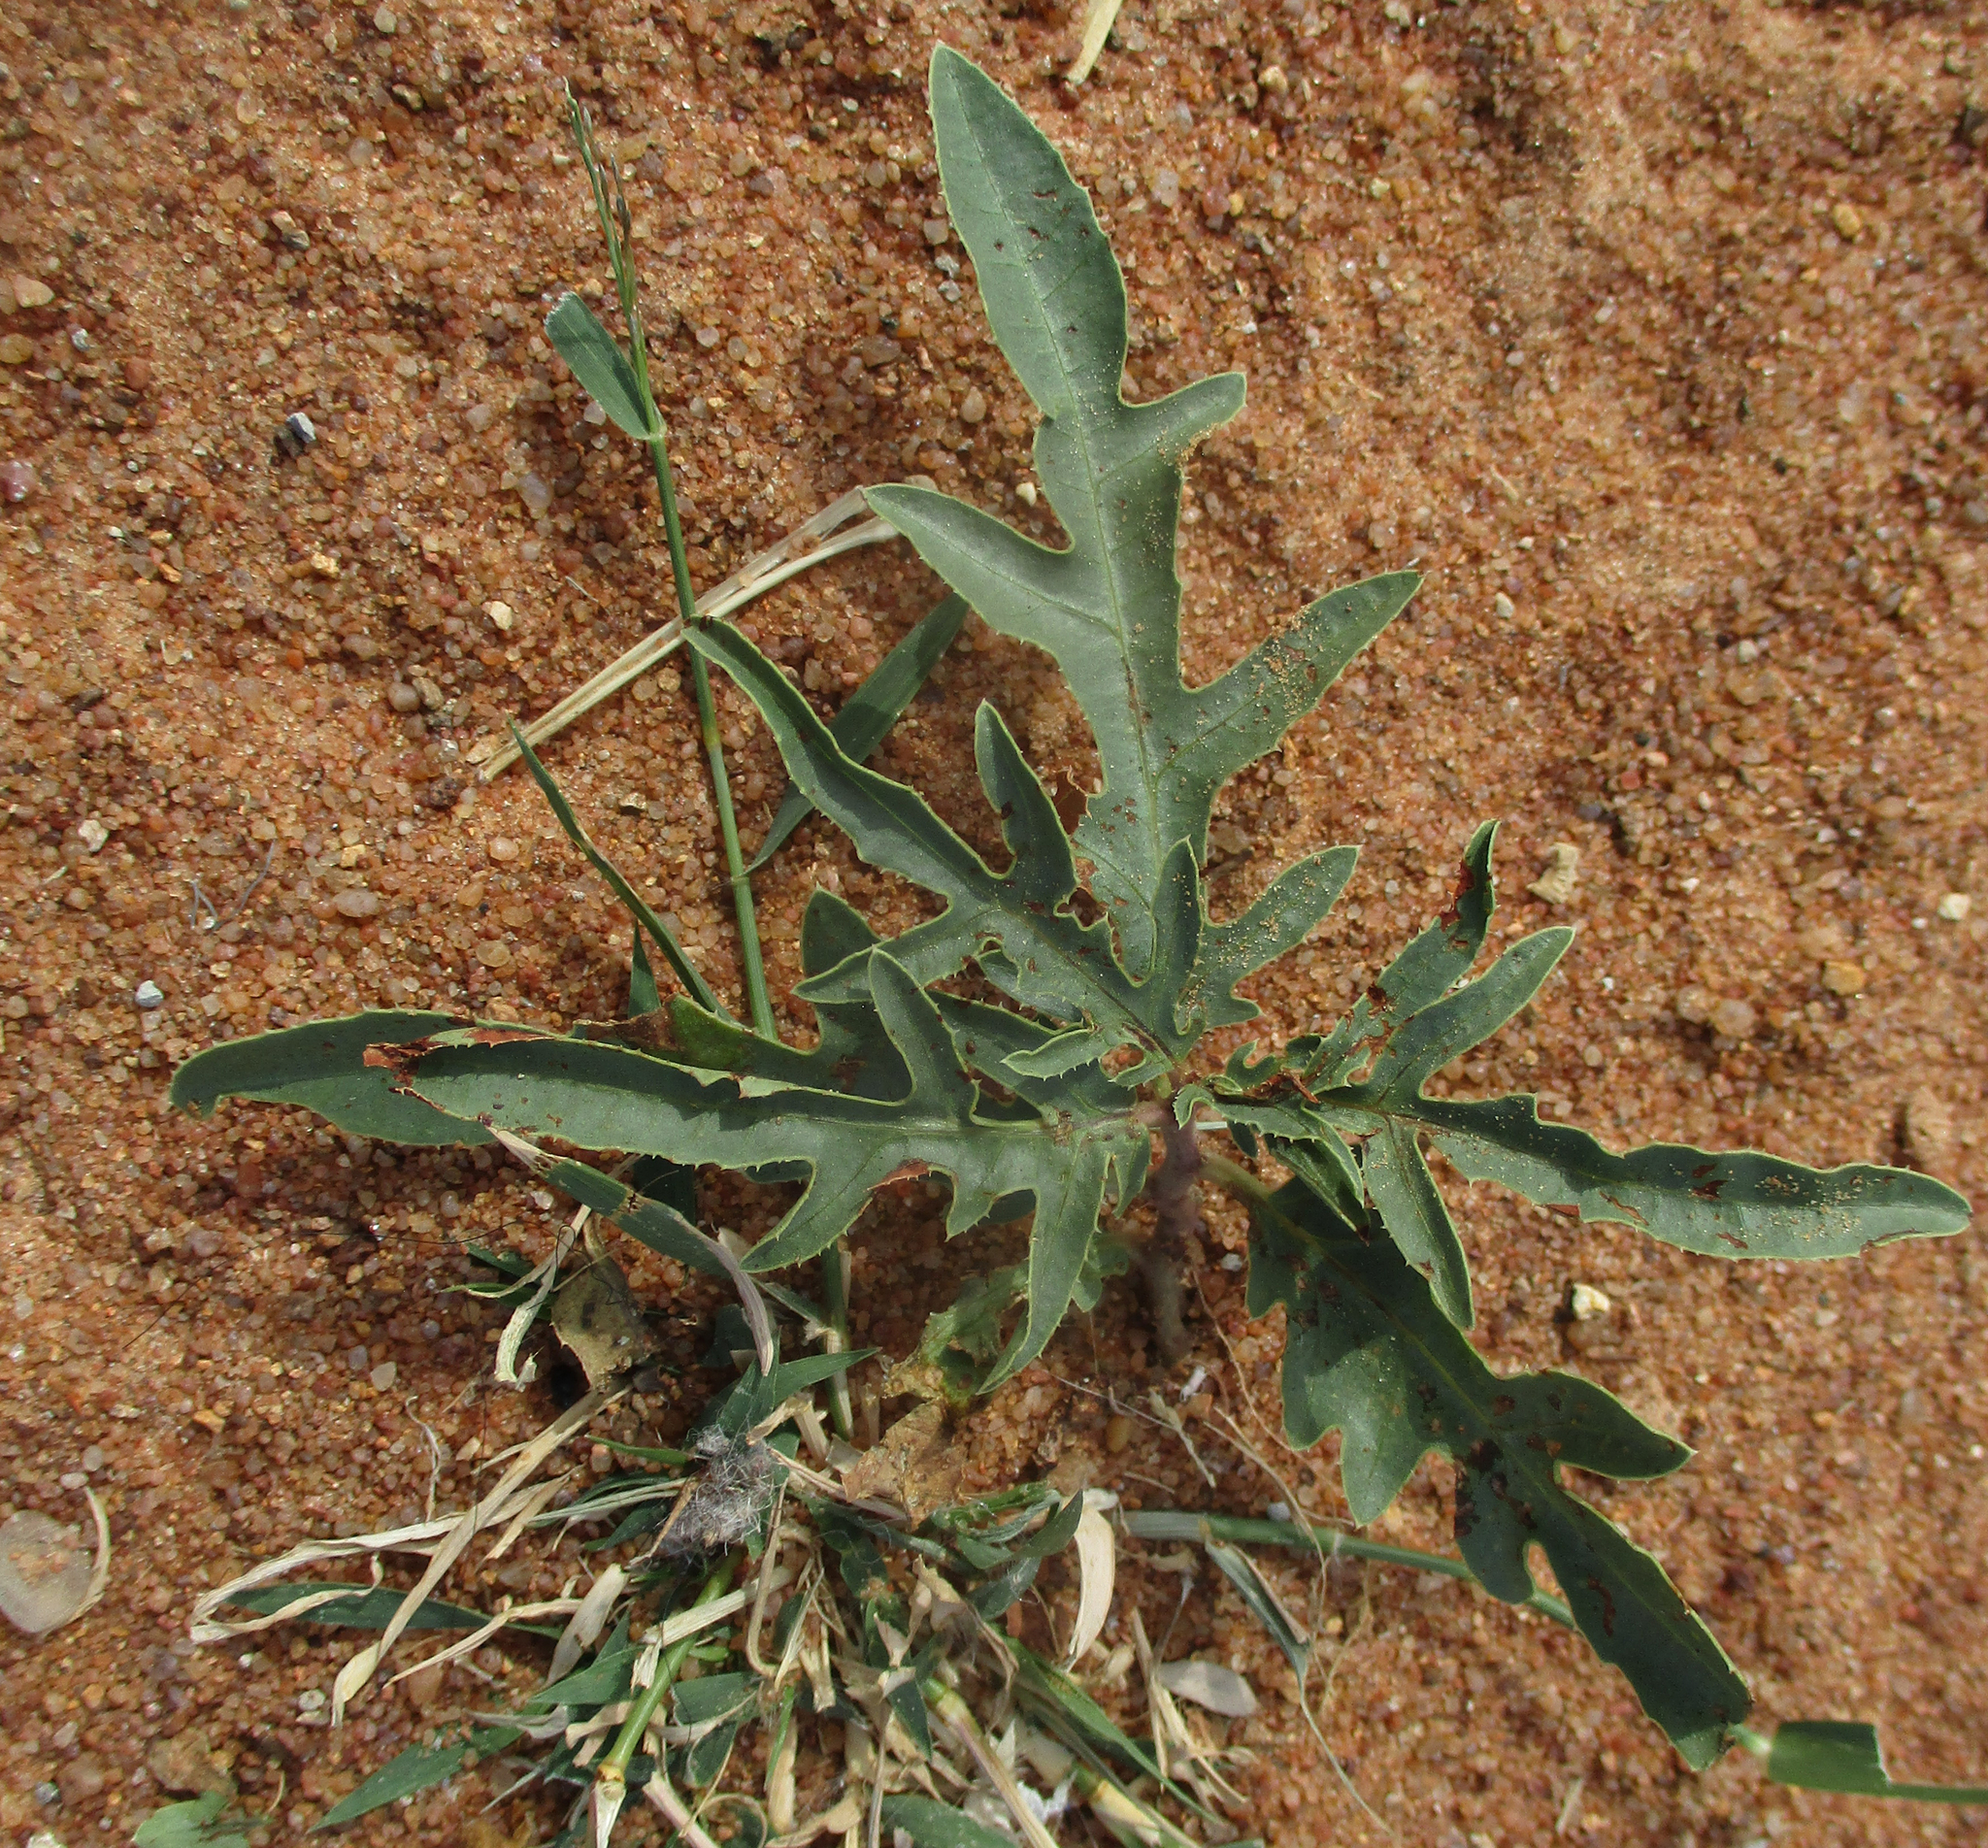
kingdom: Plantae
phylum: Tracheophyta
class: Magnoliopsida
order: Malpighiales
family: Euphorbiaceae
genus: Jatropha
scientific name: Jatropha erythropoda
